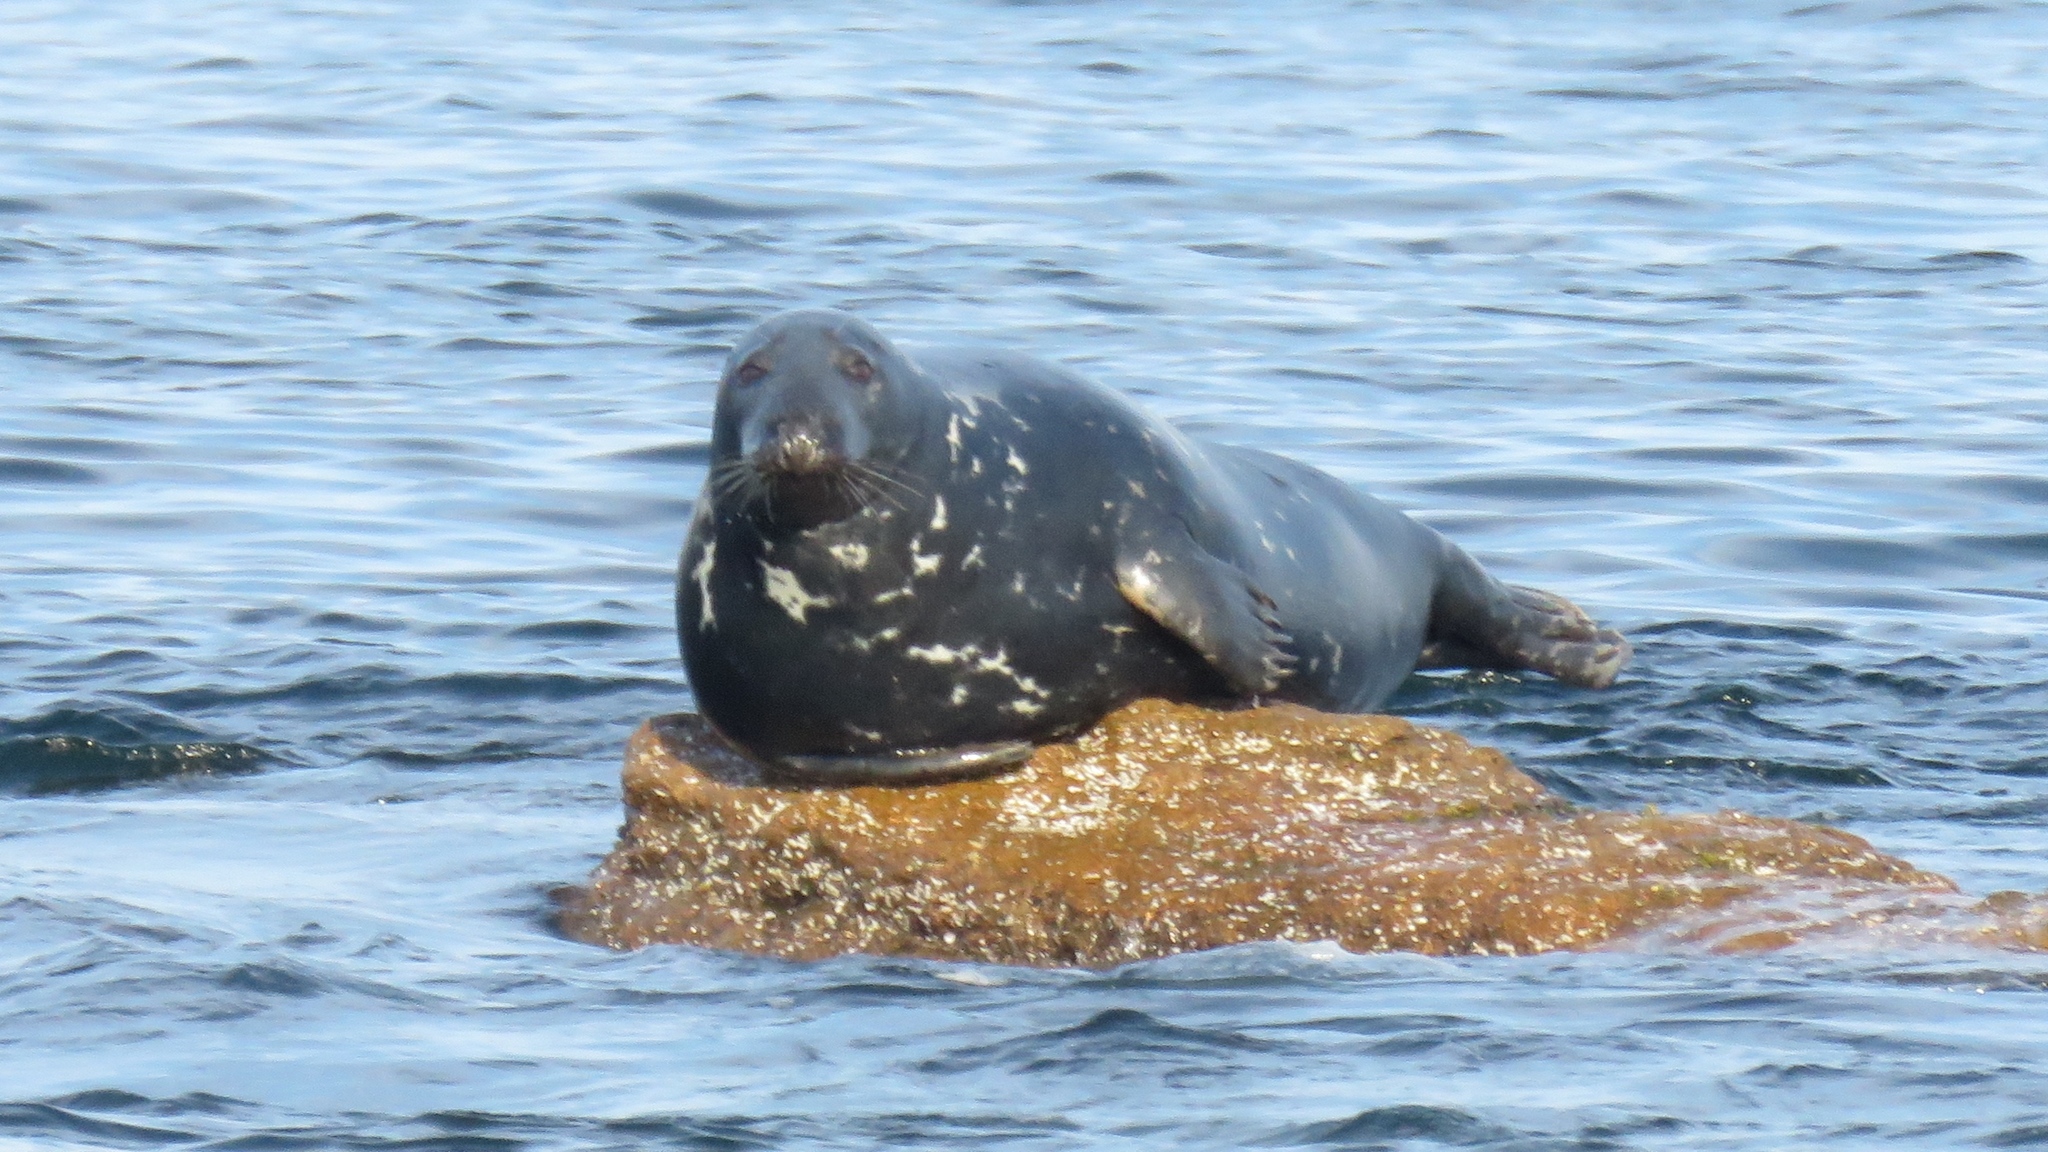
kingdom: Animalia
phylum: Chordata
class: Mammalia
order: Carnivora
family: Phocidae
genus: Halichoerus
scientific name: Halichoerus grypus
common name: Grey seal
